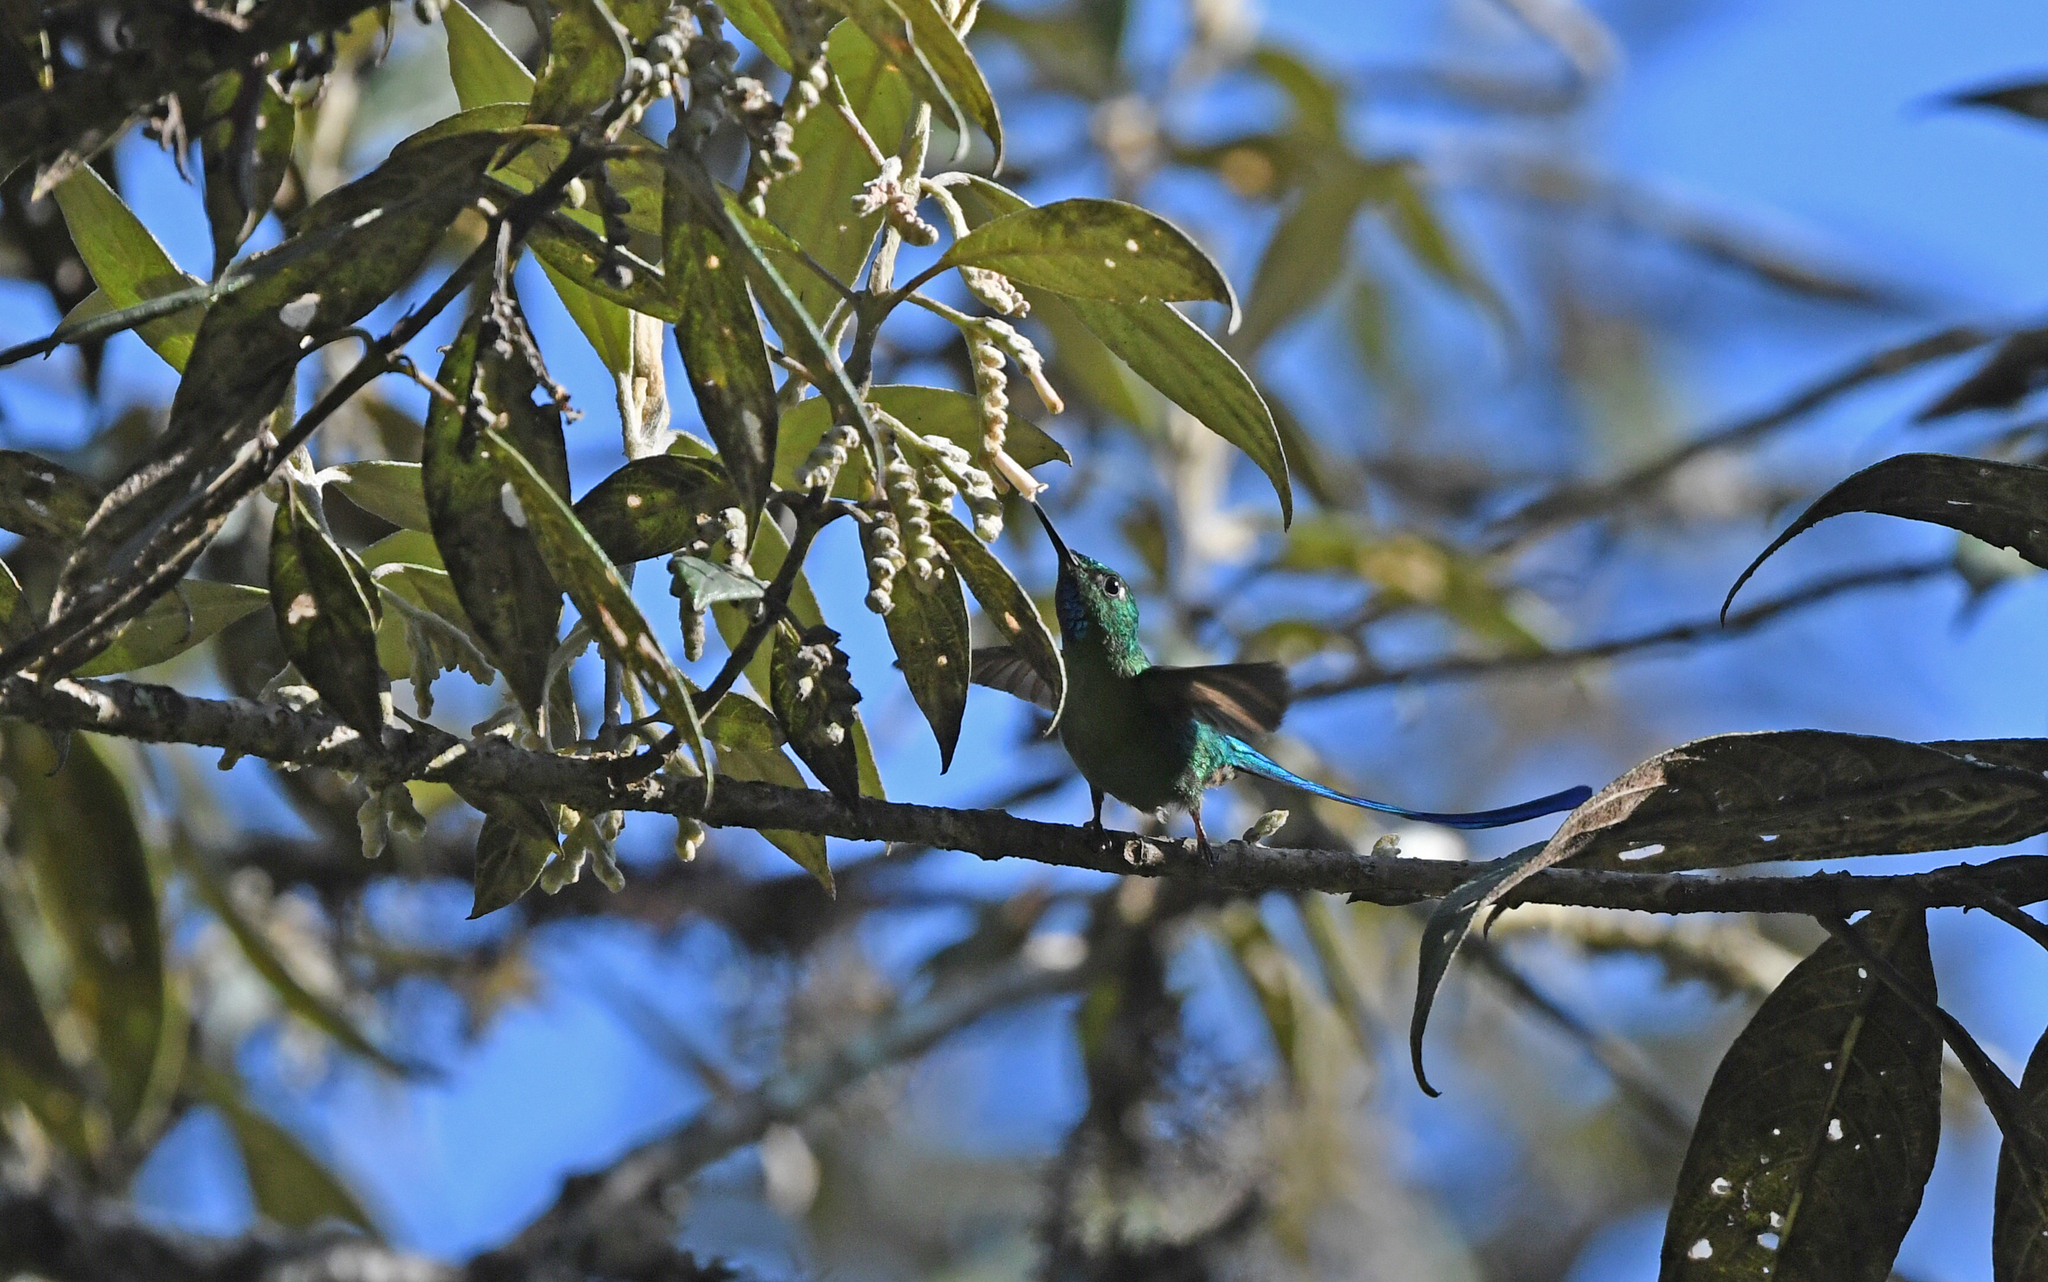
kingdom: Animalia
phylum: Chordata
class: Aves
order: Apodiformes
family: Trochilidae
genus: Aglaiocercus
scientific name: Aglaiocercus kingii
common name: Long-tailed sylph
